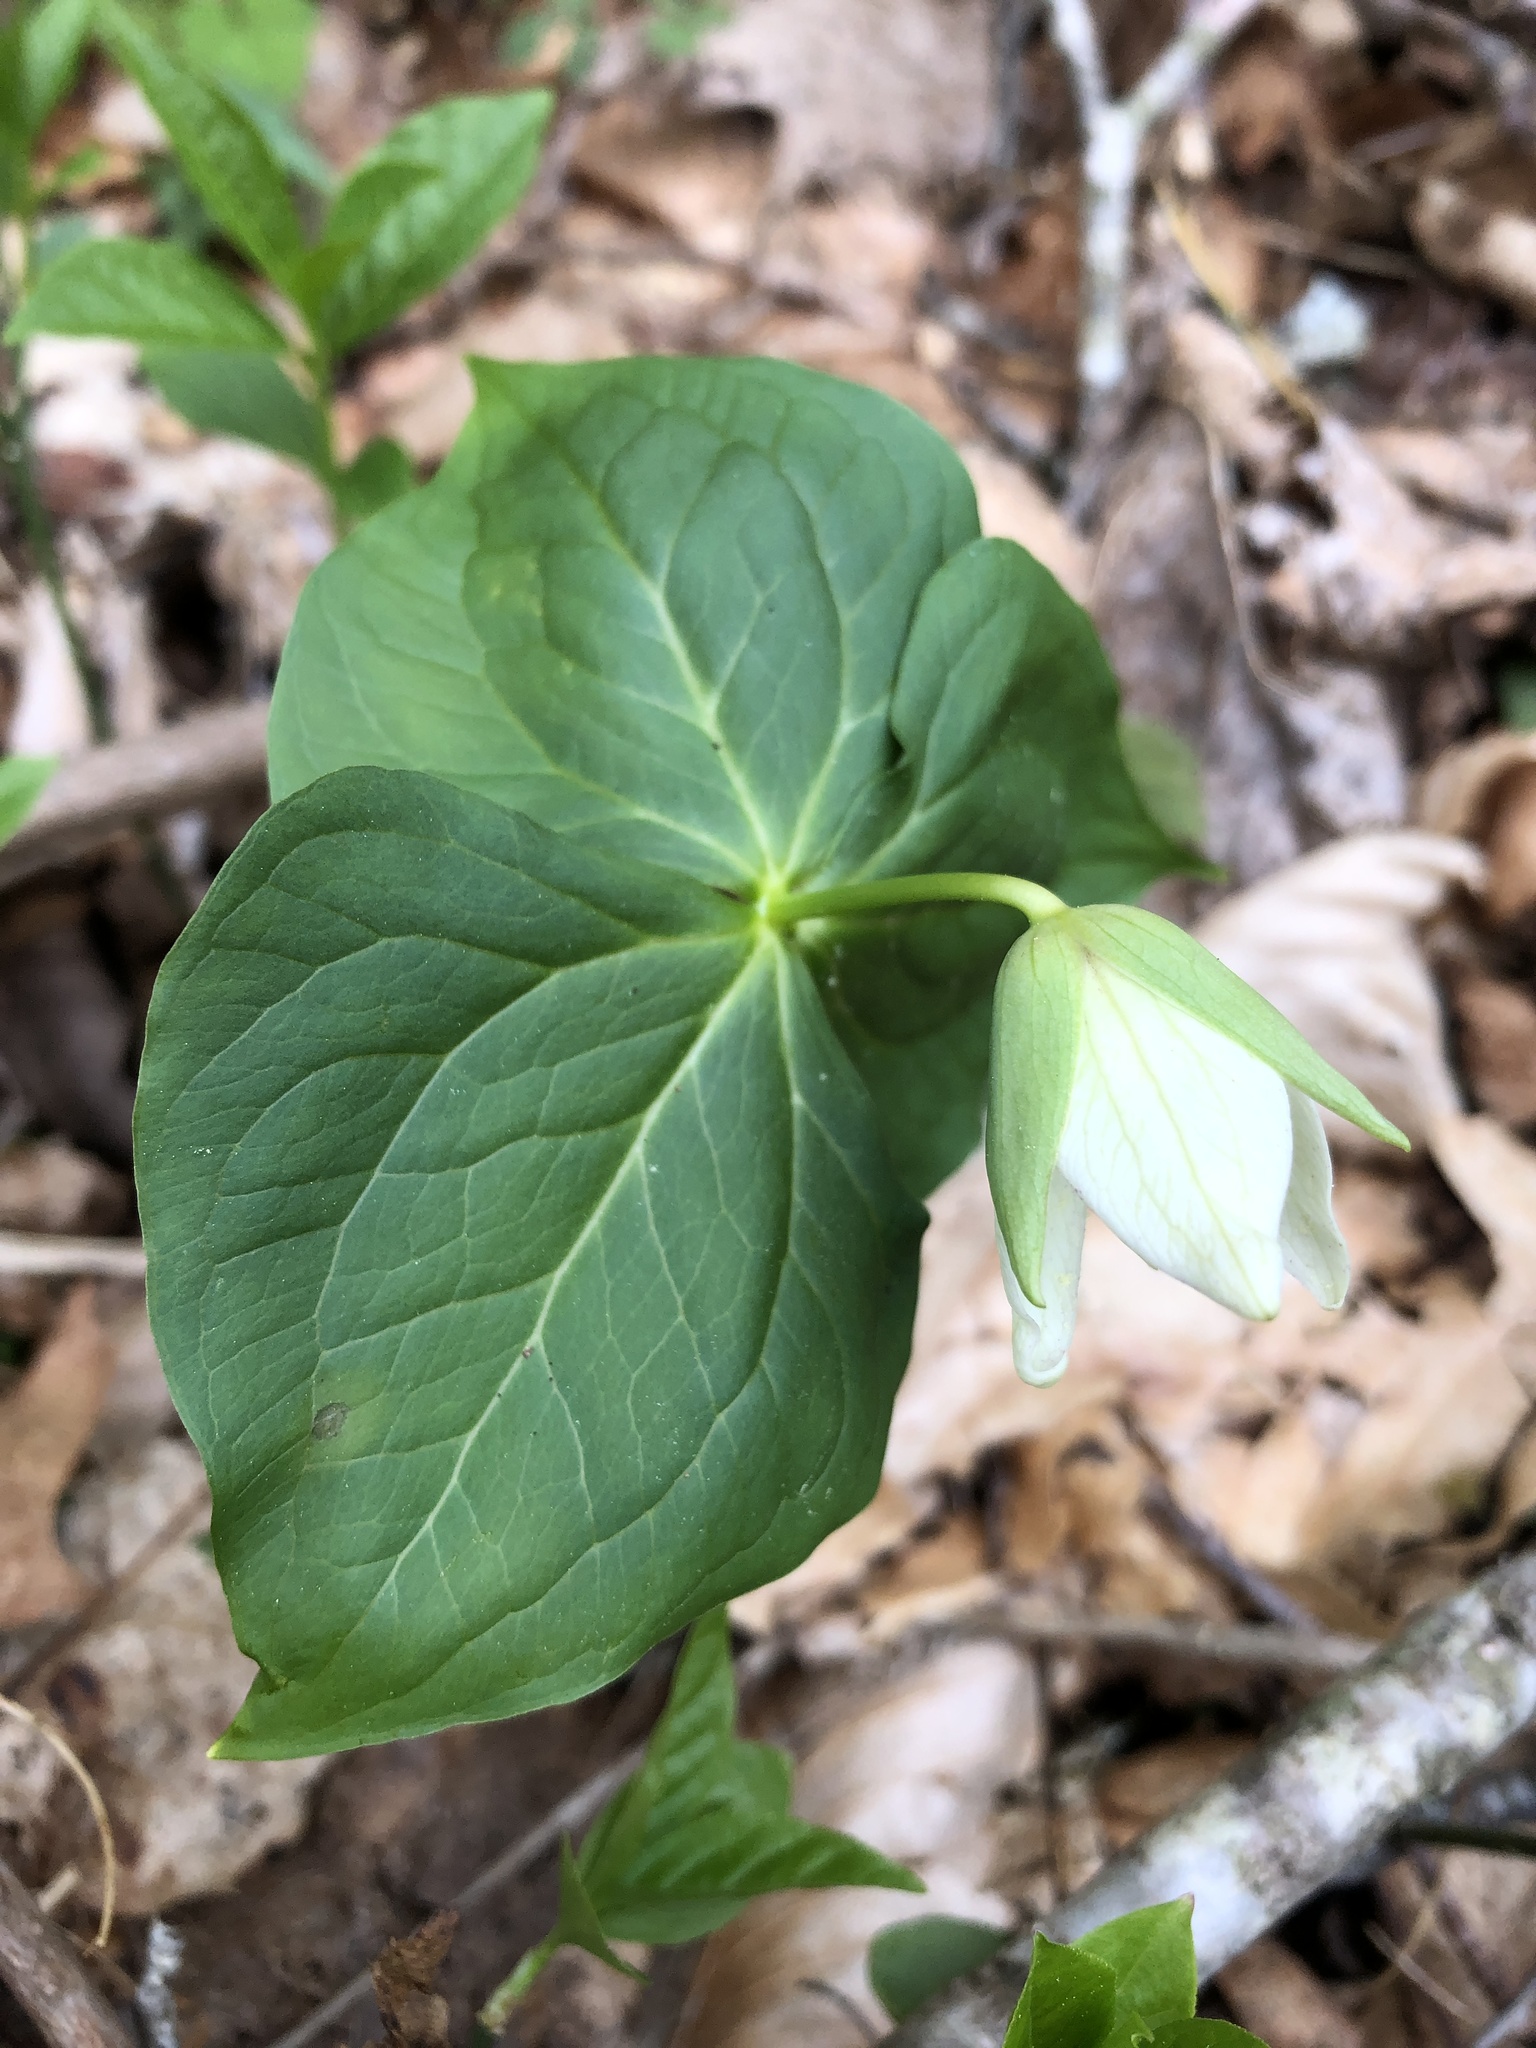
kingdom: Plantae
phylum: Tracheophyta
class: Liliopsida
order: Liliales
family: Melanthiaceae
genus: Trillium
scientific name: Trillium erectum
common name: Purple trillium
